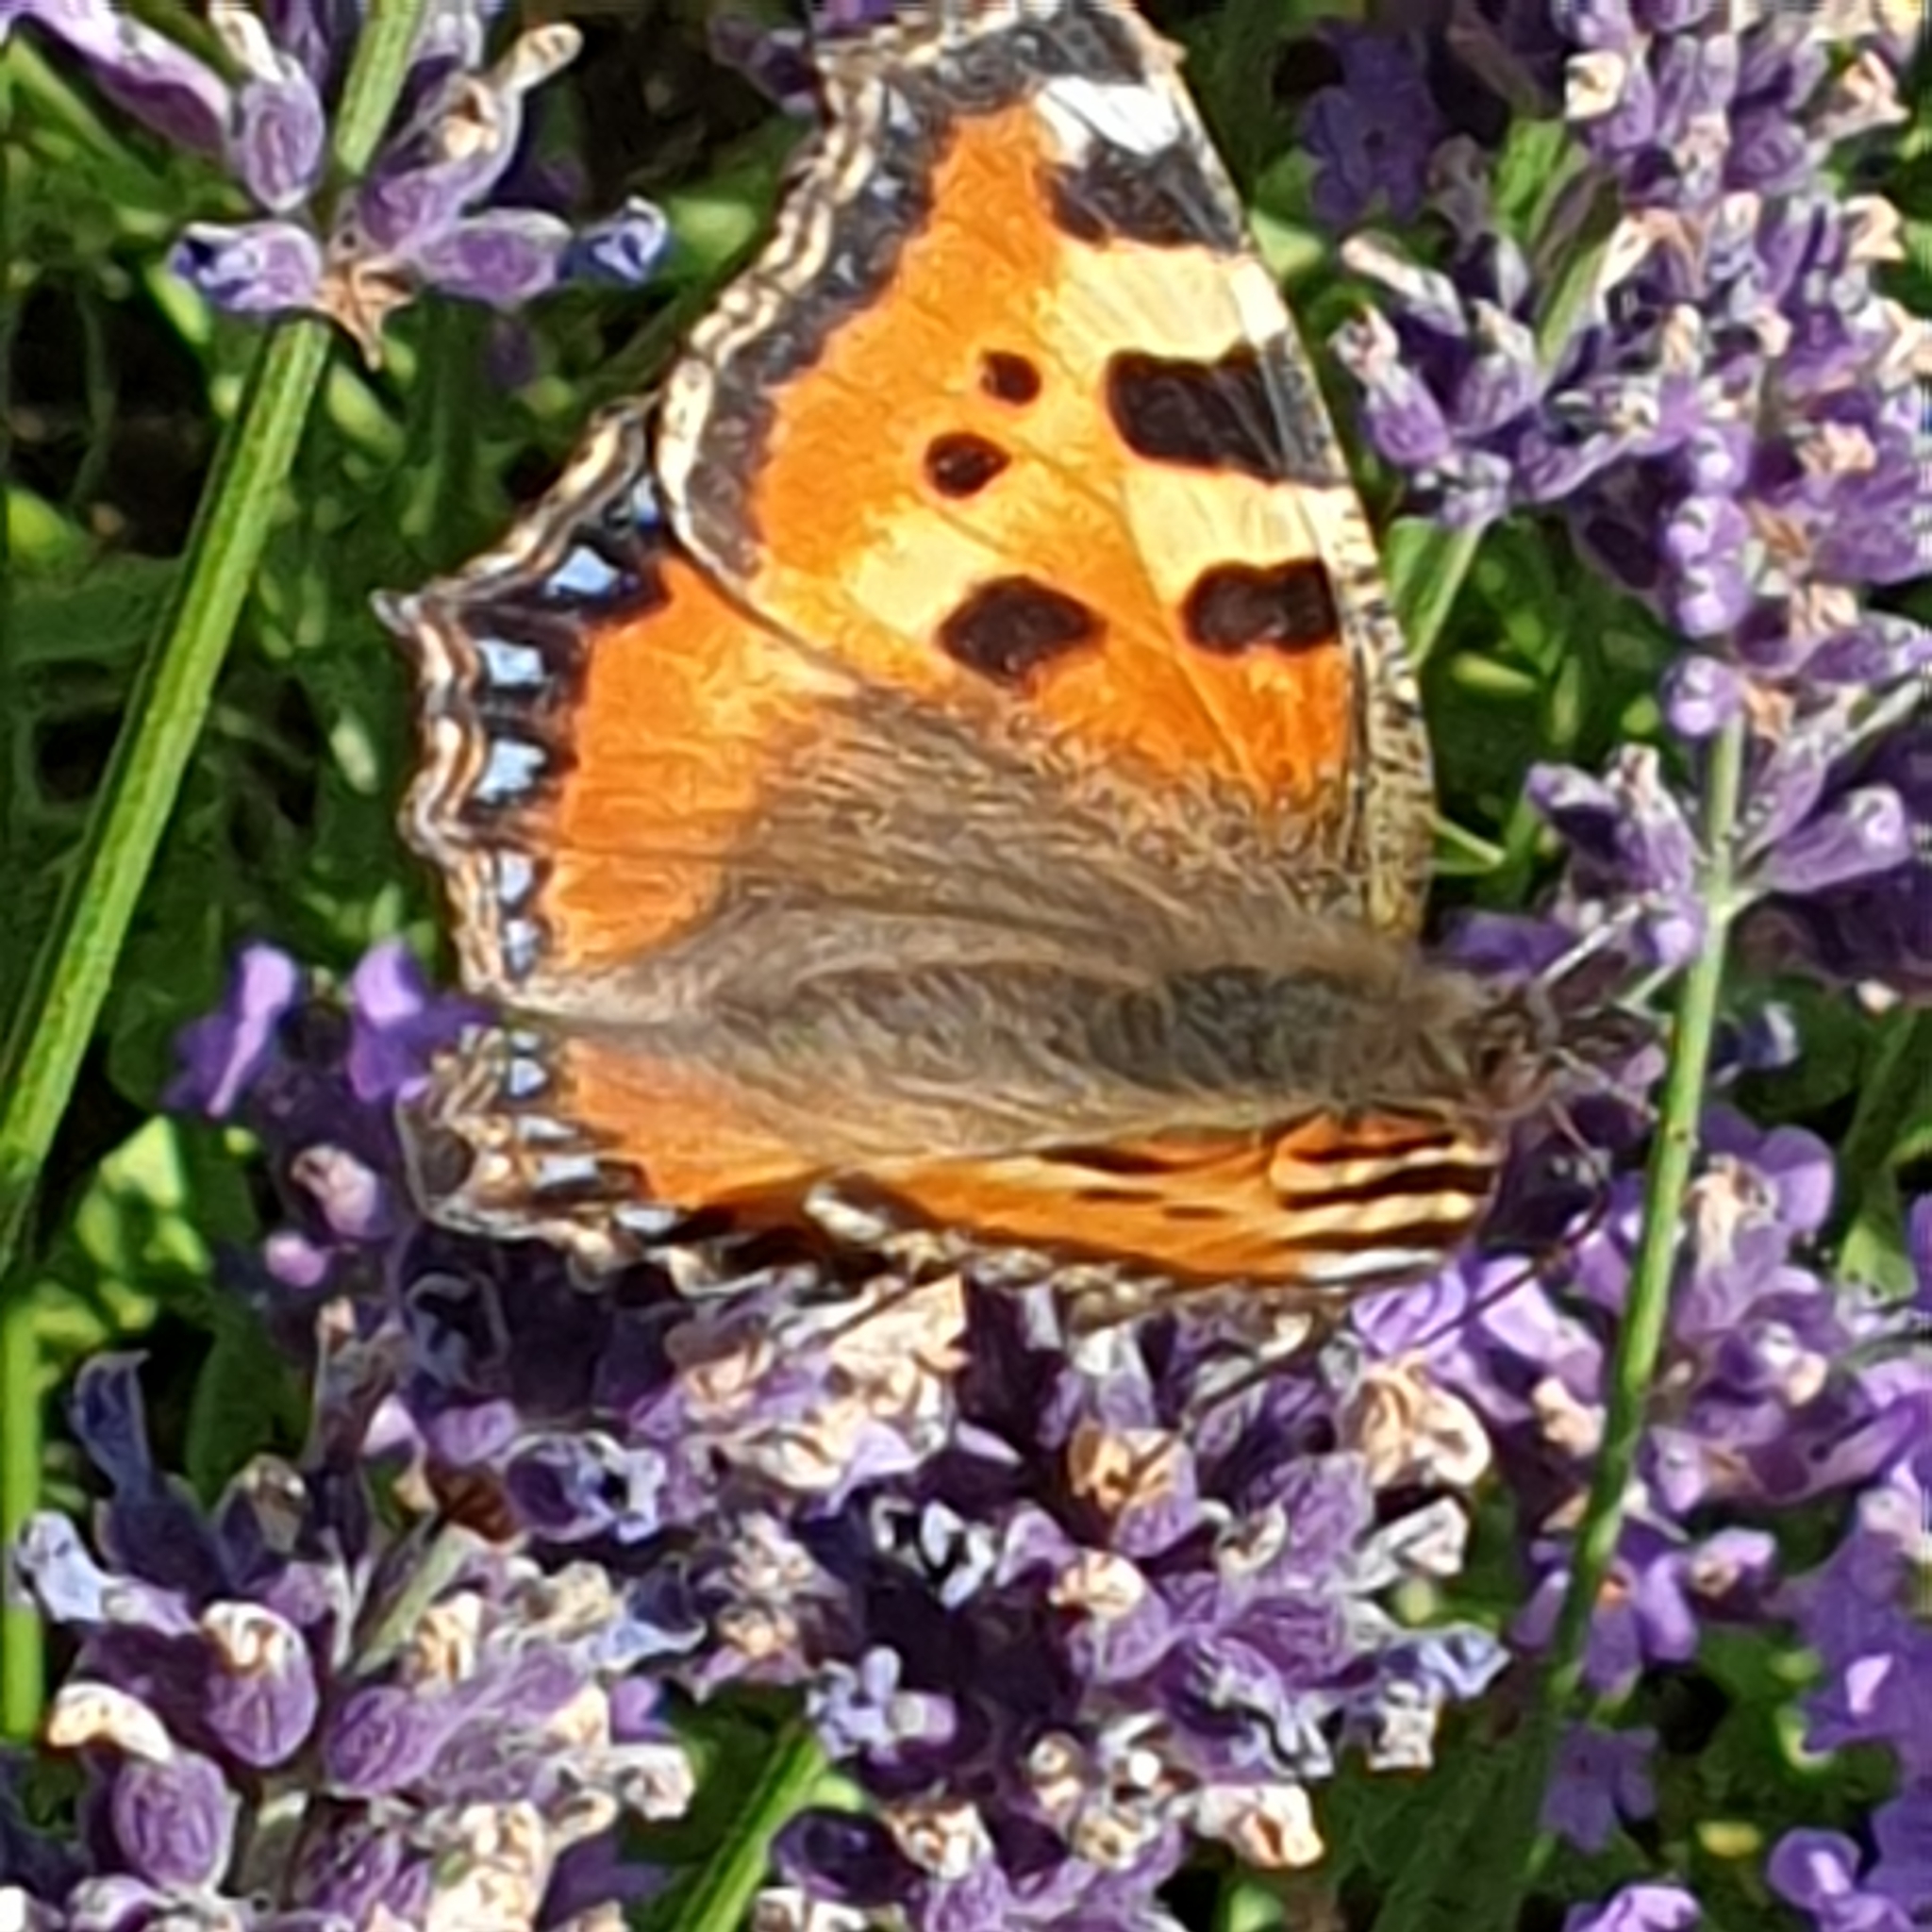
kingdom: Animalia
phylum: Arthropoda
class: Insecta
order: Lepidoptera
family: Nymphalidae
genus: Aglais
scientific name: Aglais urticae
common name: Small tortoiseshell
